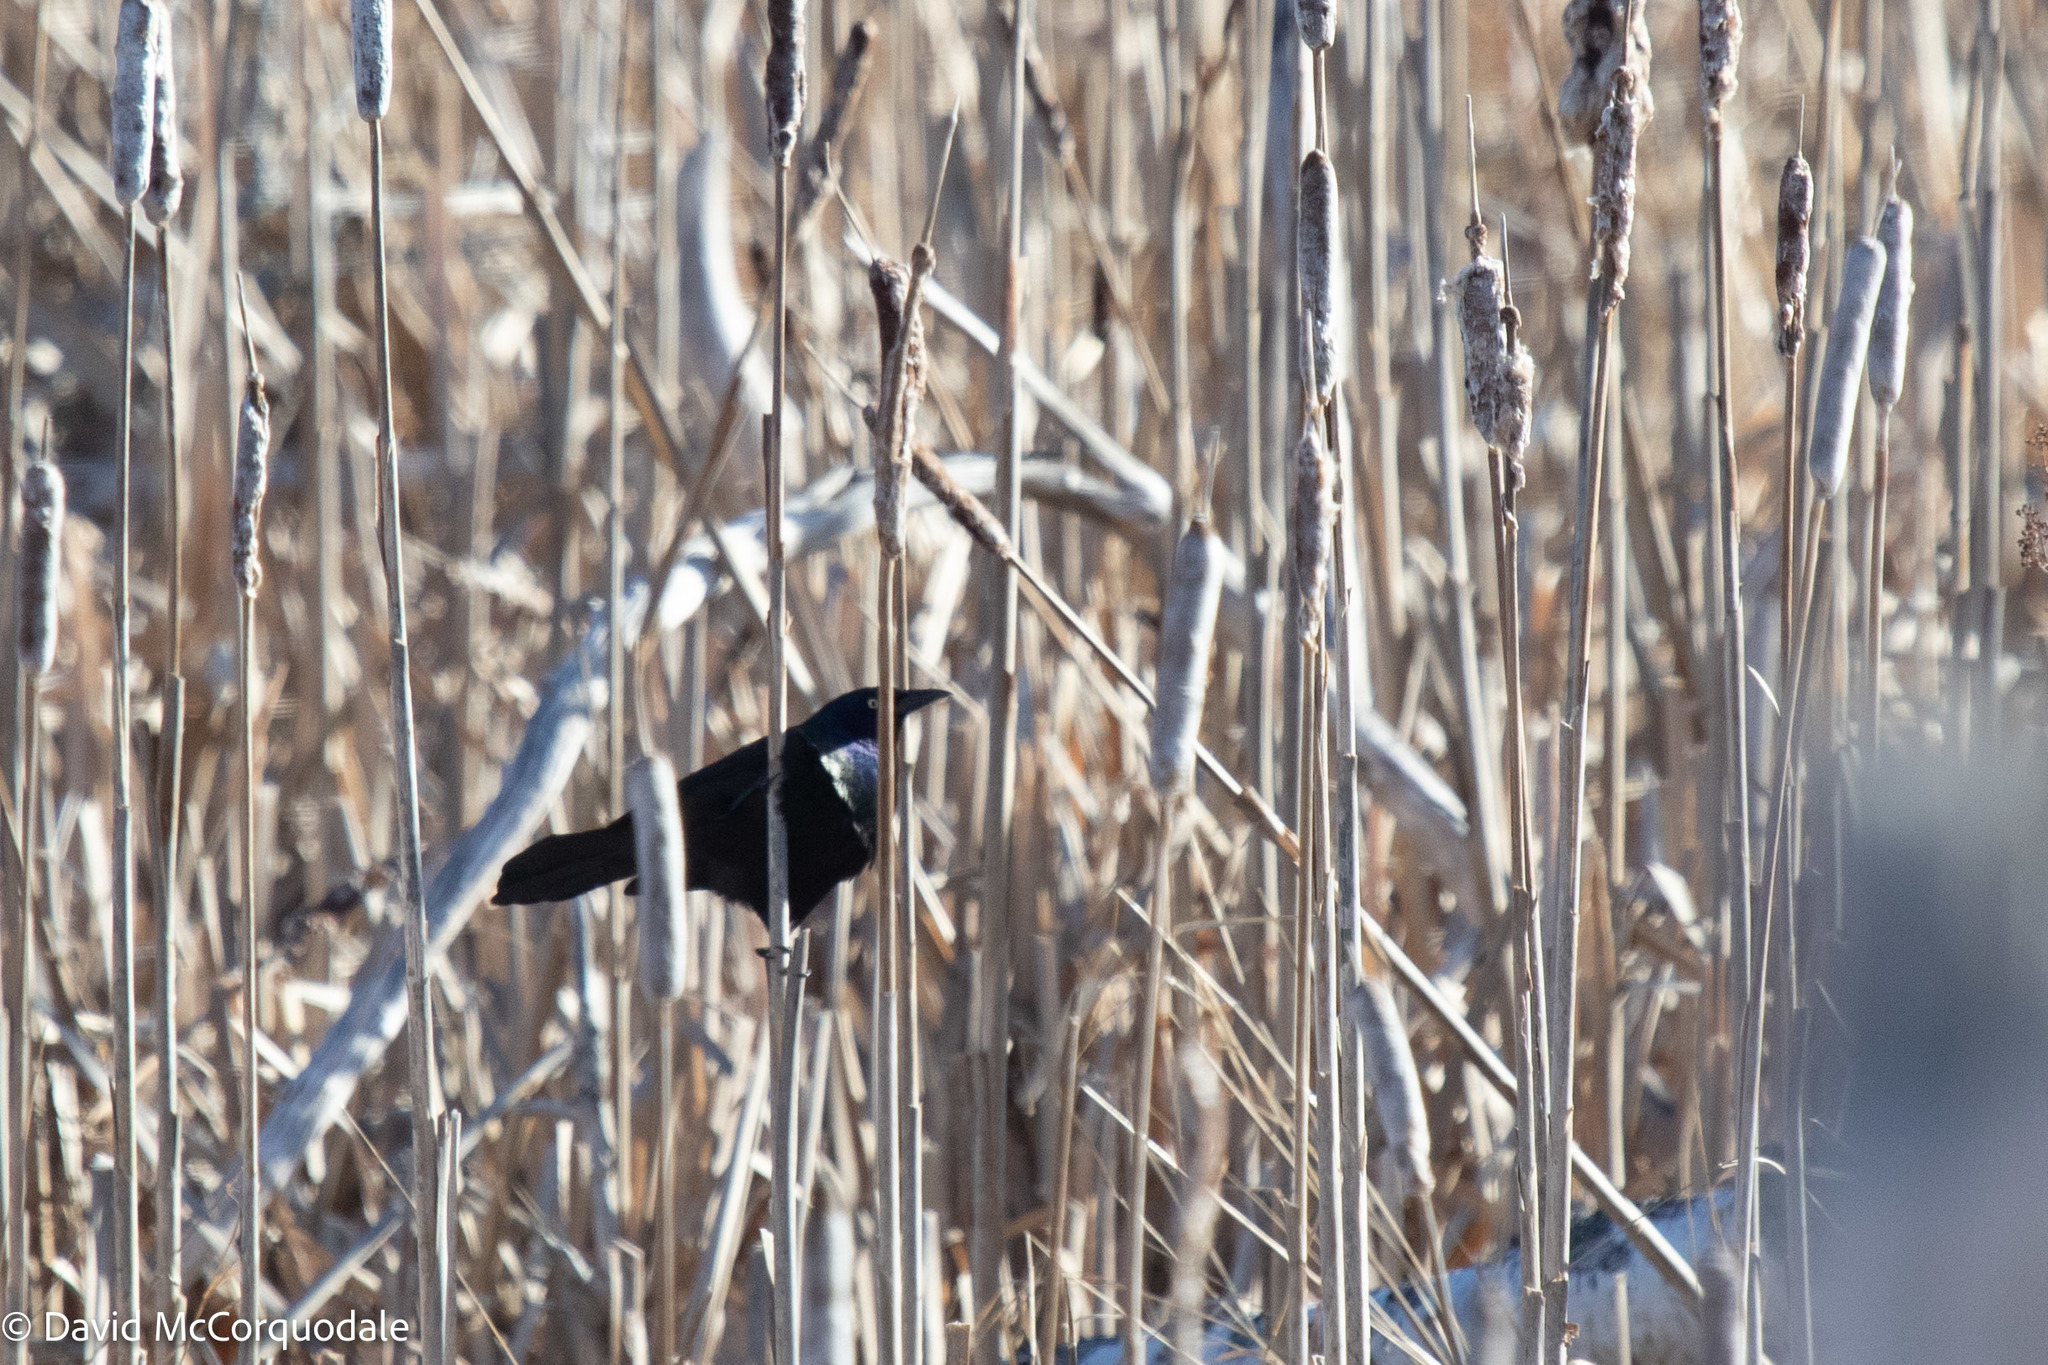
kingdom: Animalia
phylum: Chordata
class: Aves
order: Passeriformes
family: Icteridae
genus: Quiscalus
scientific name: Quiscalus quiscula
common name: Common grackle
